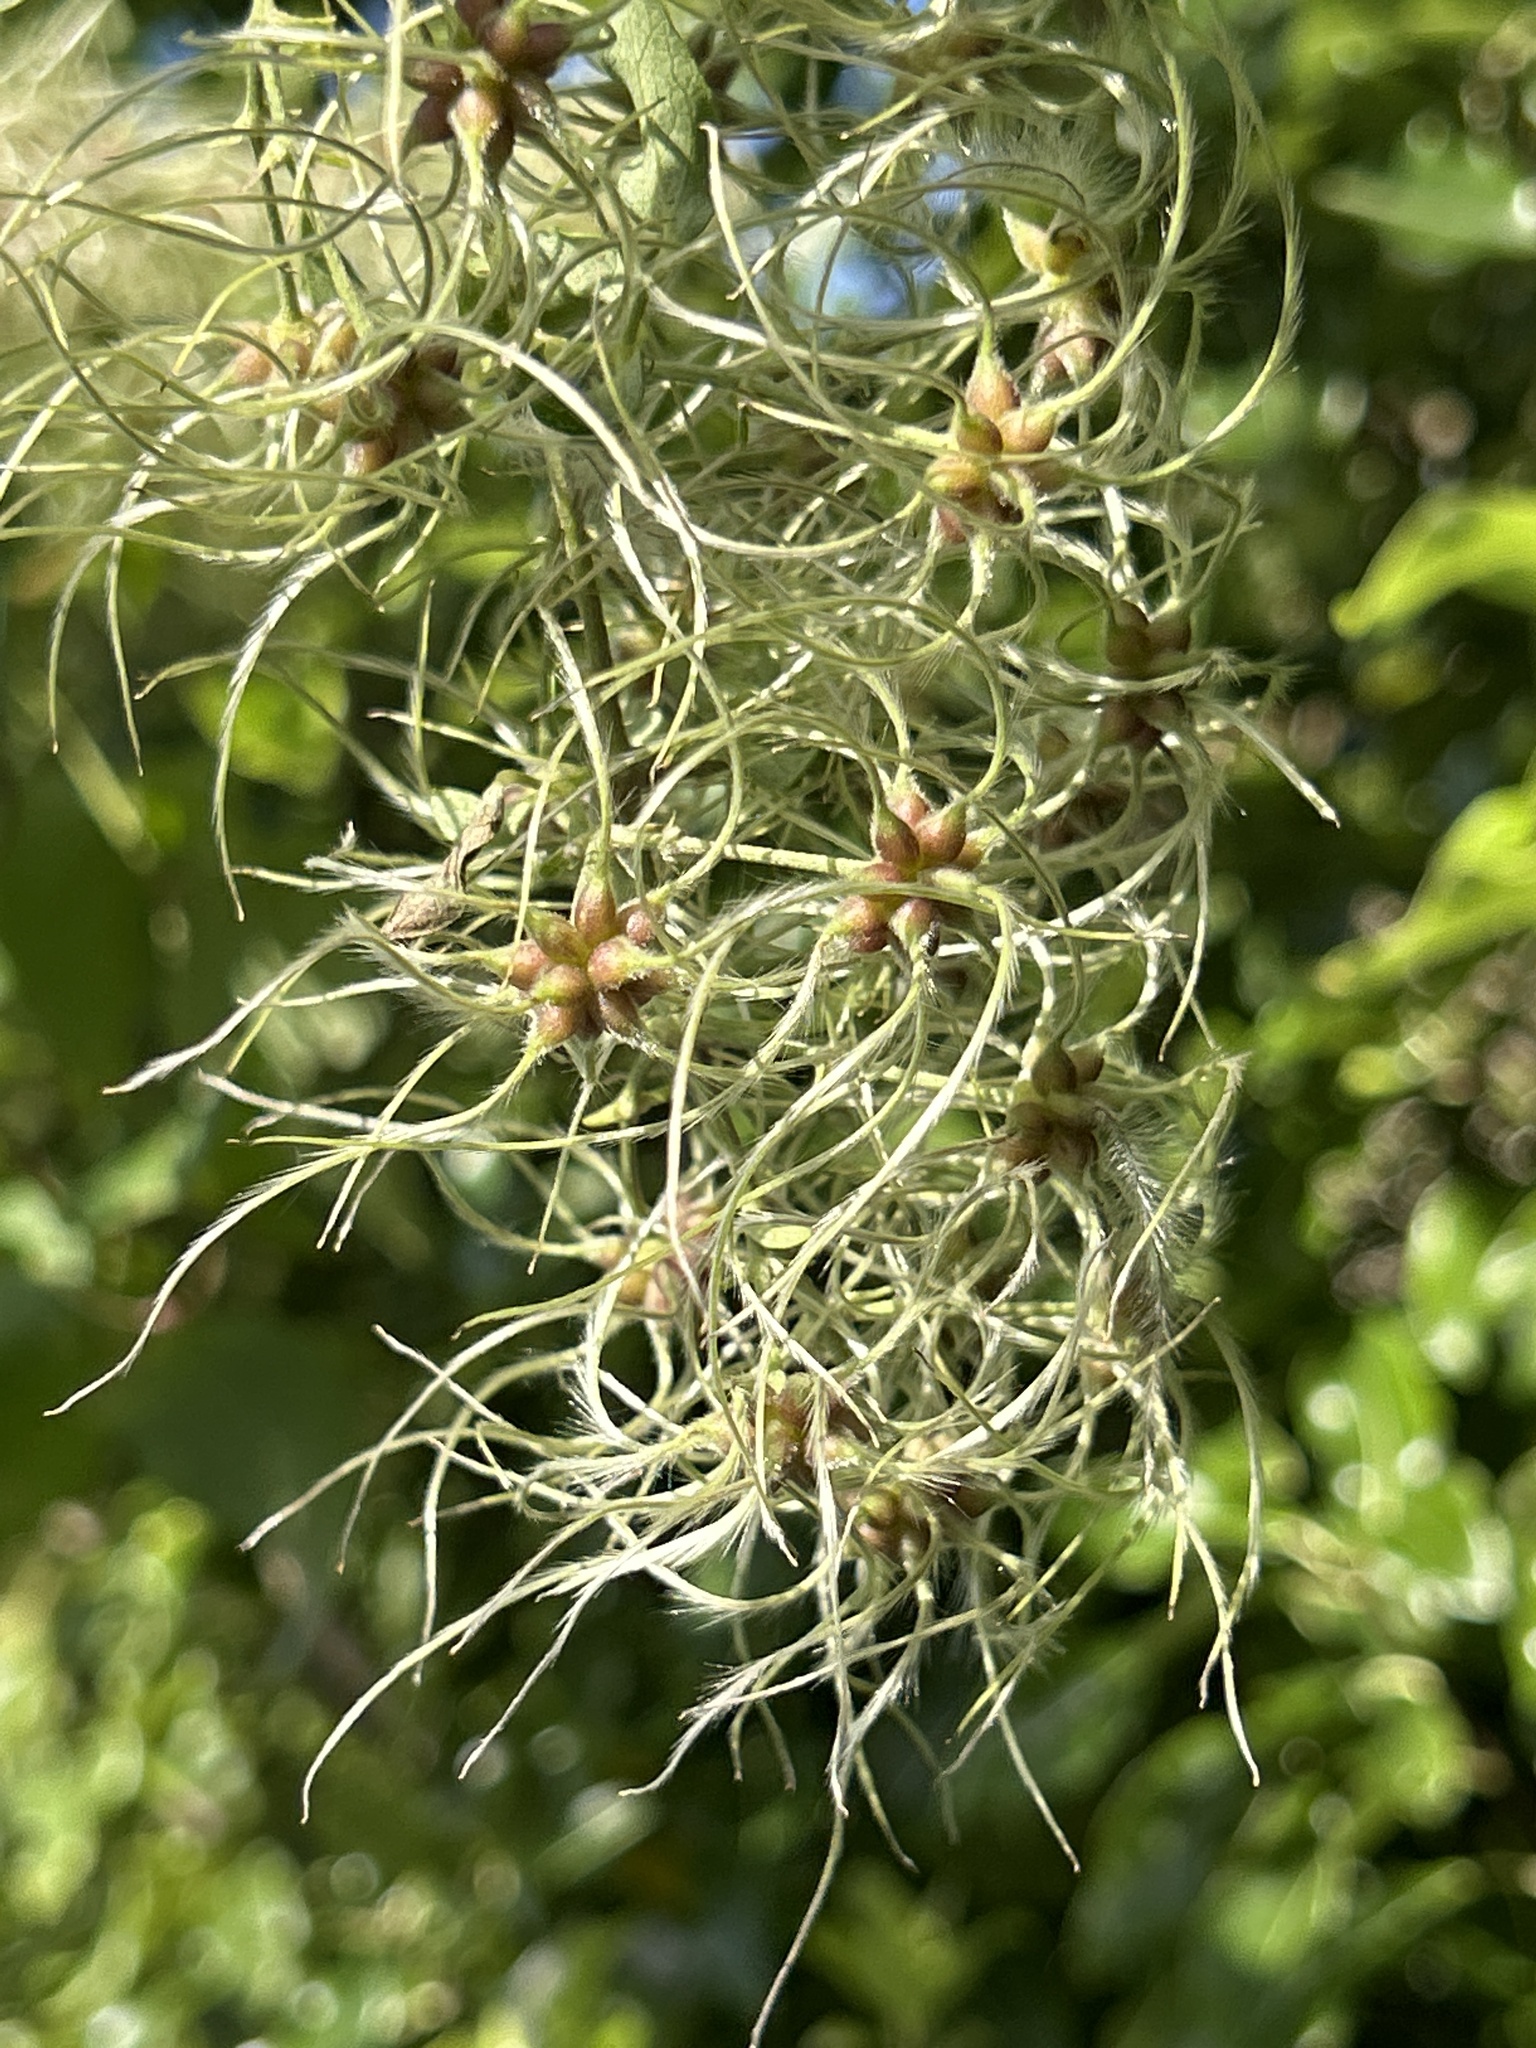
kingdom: Plantae
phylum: Tracheophyta
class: Magnoliopsida
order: Ranunculales
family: Ranunculaceae
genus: Clematis
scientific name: Clematis vitalba
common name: Evergreen clematis
